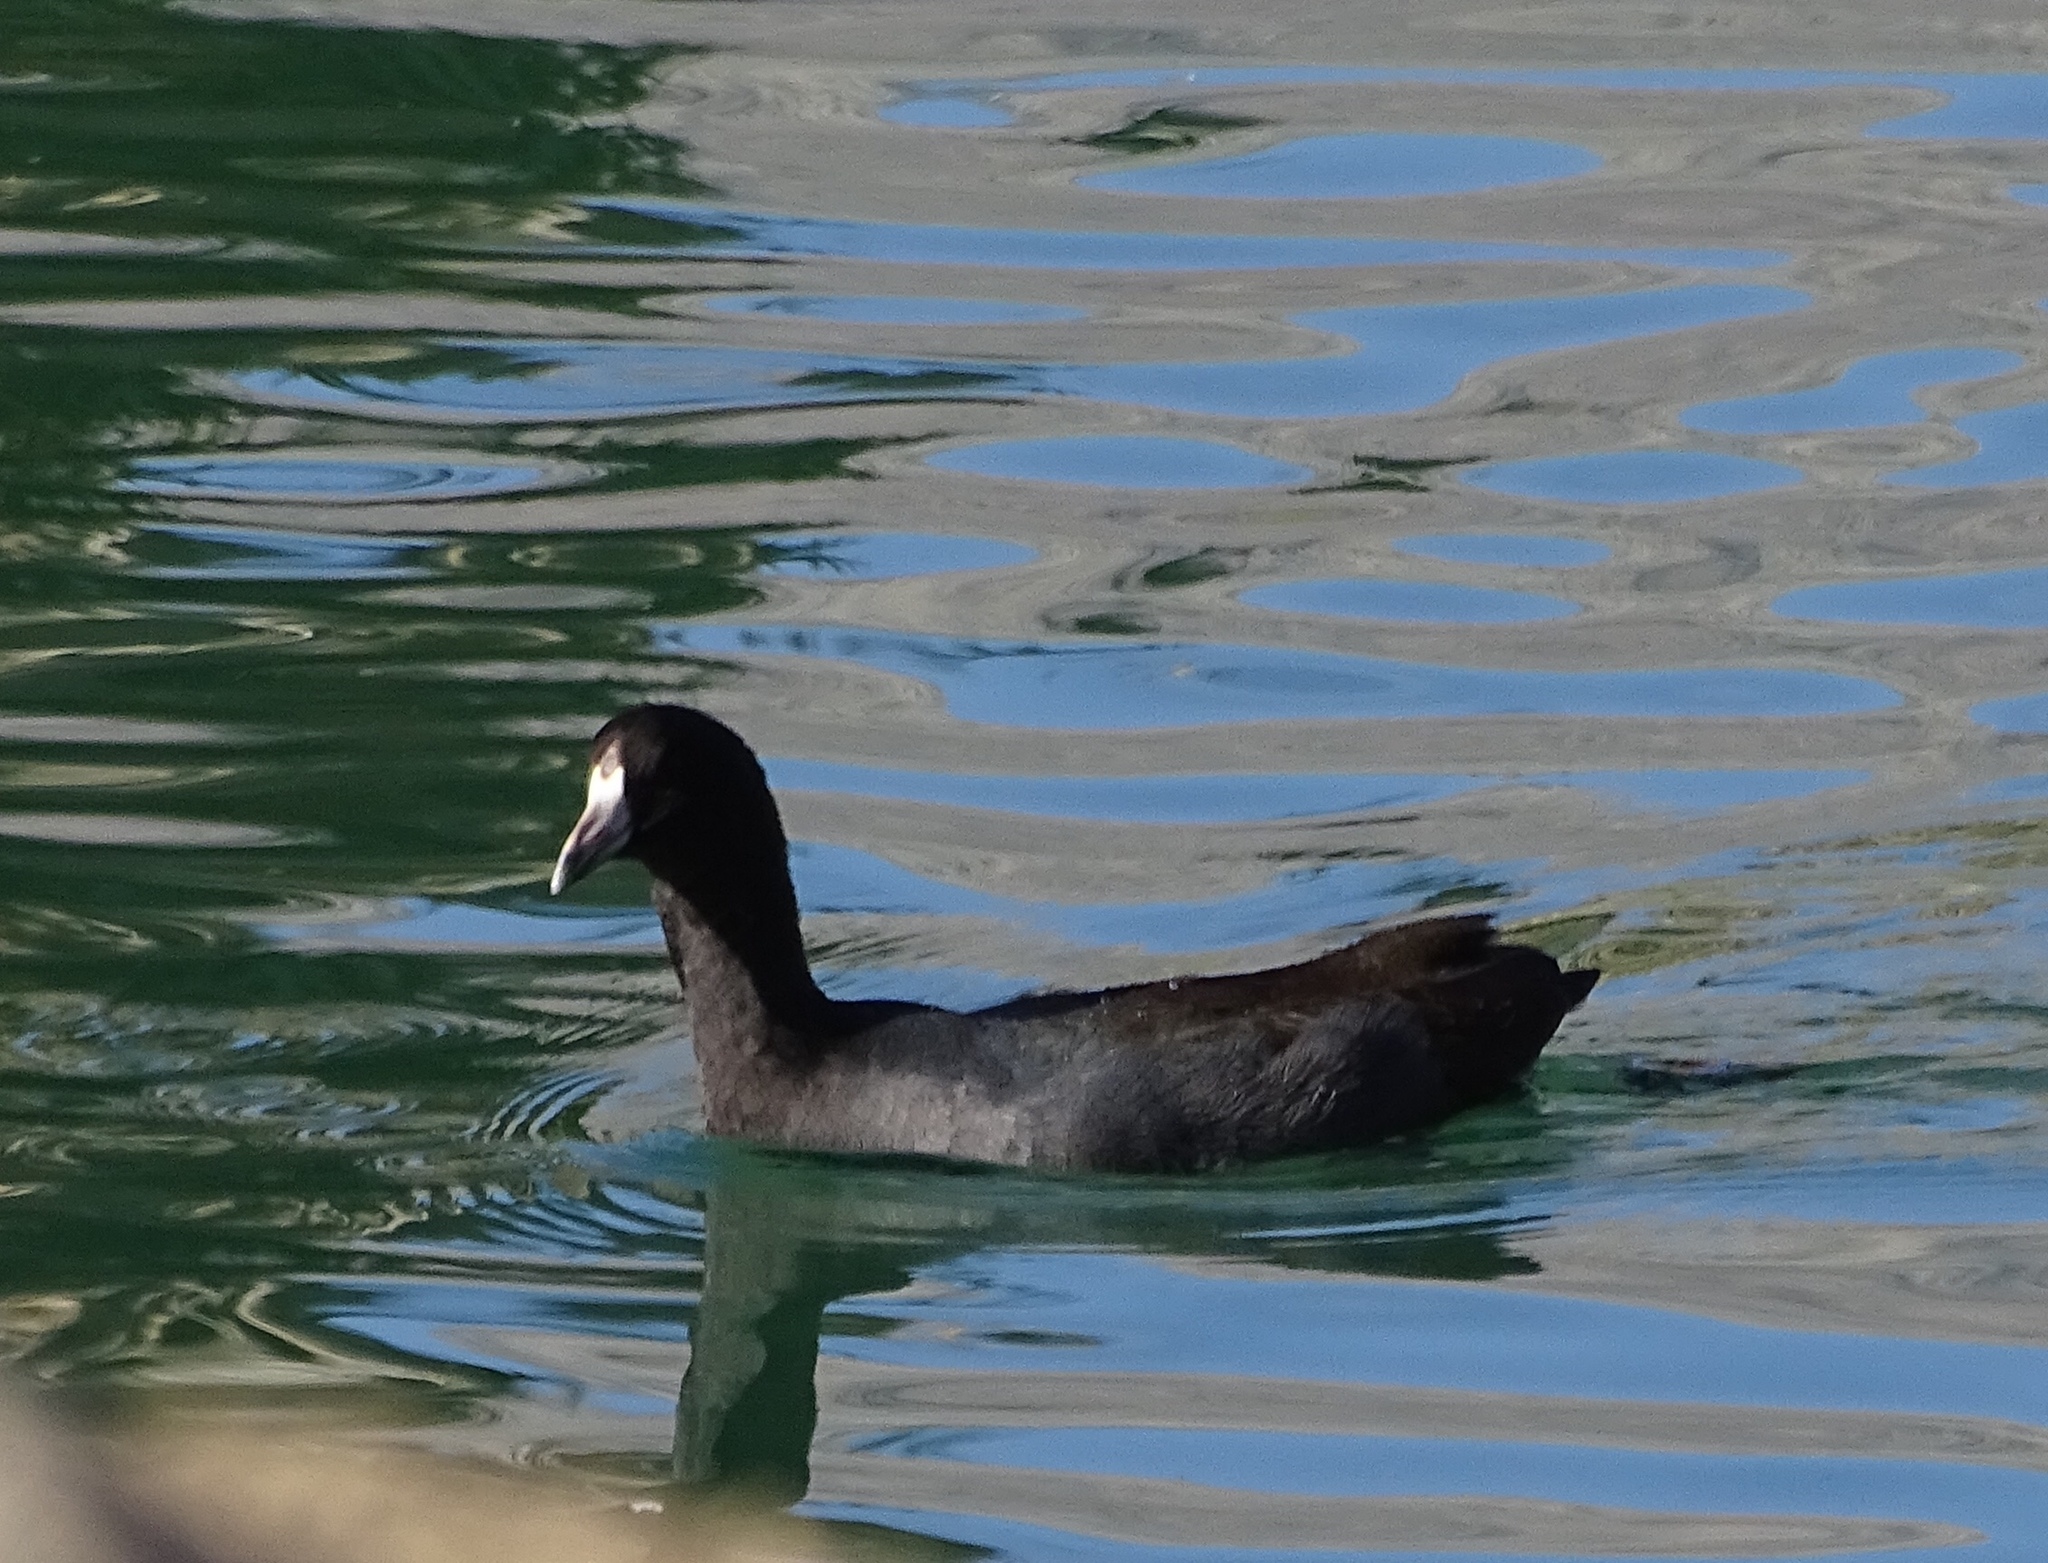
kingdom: Animalia
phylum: Chordata
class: Aves
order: Gruiformes
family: Rallidae
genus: Fulica
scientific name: Fulica americana
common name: American coot
